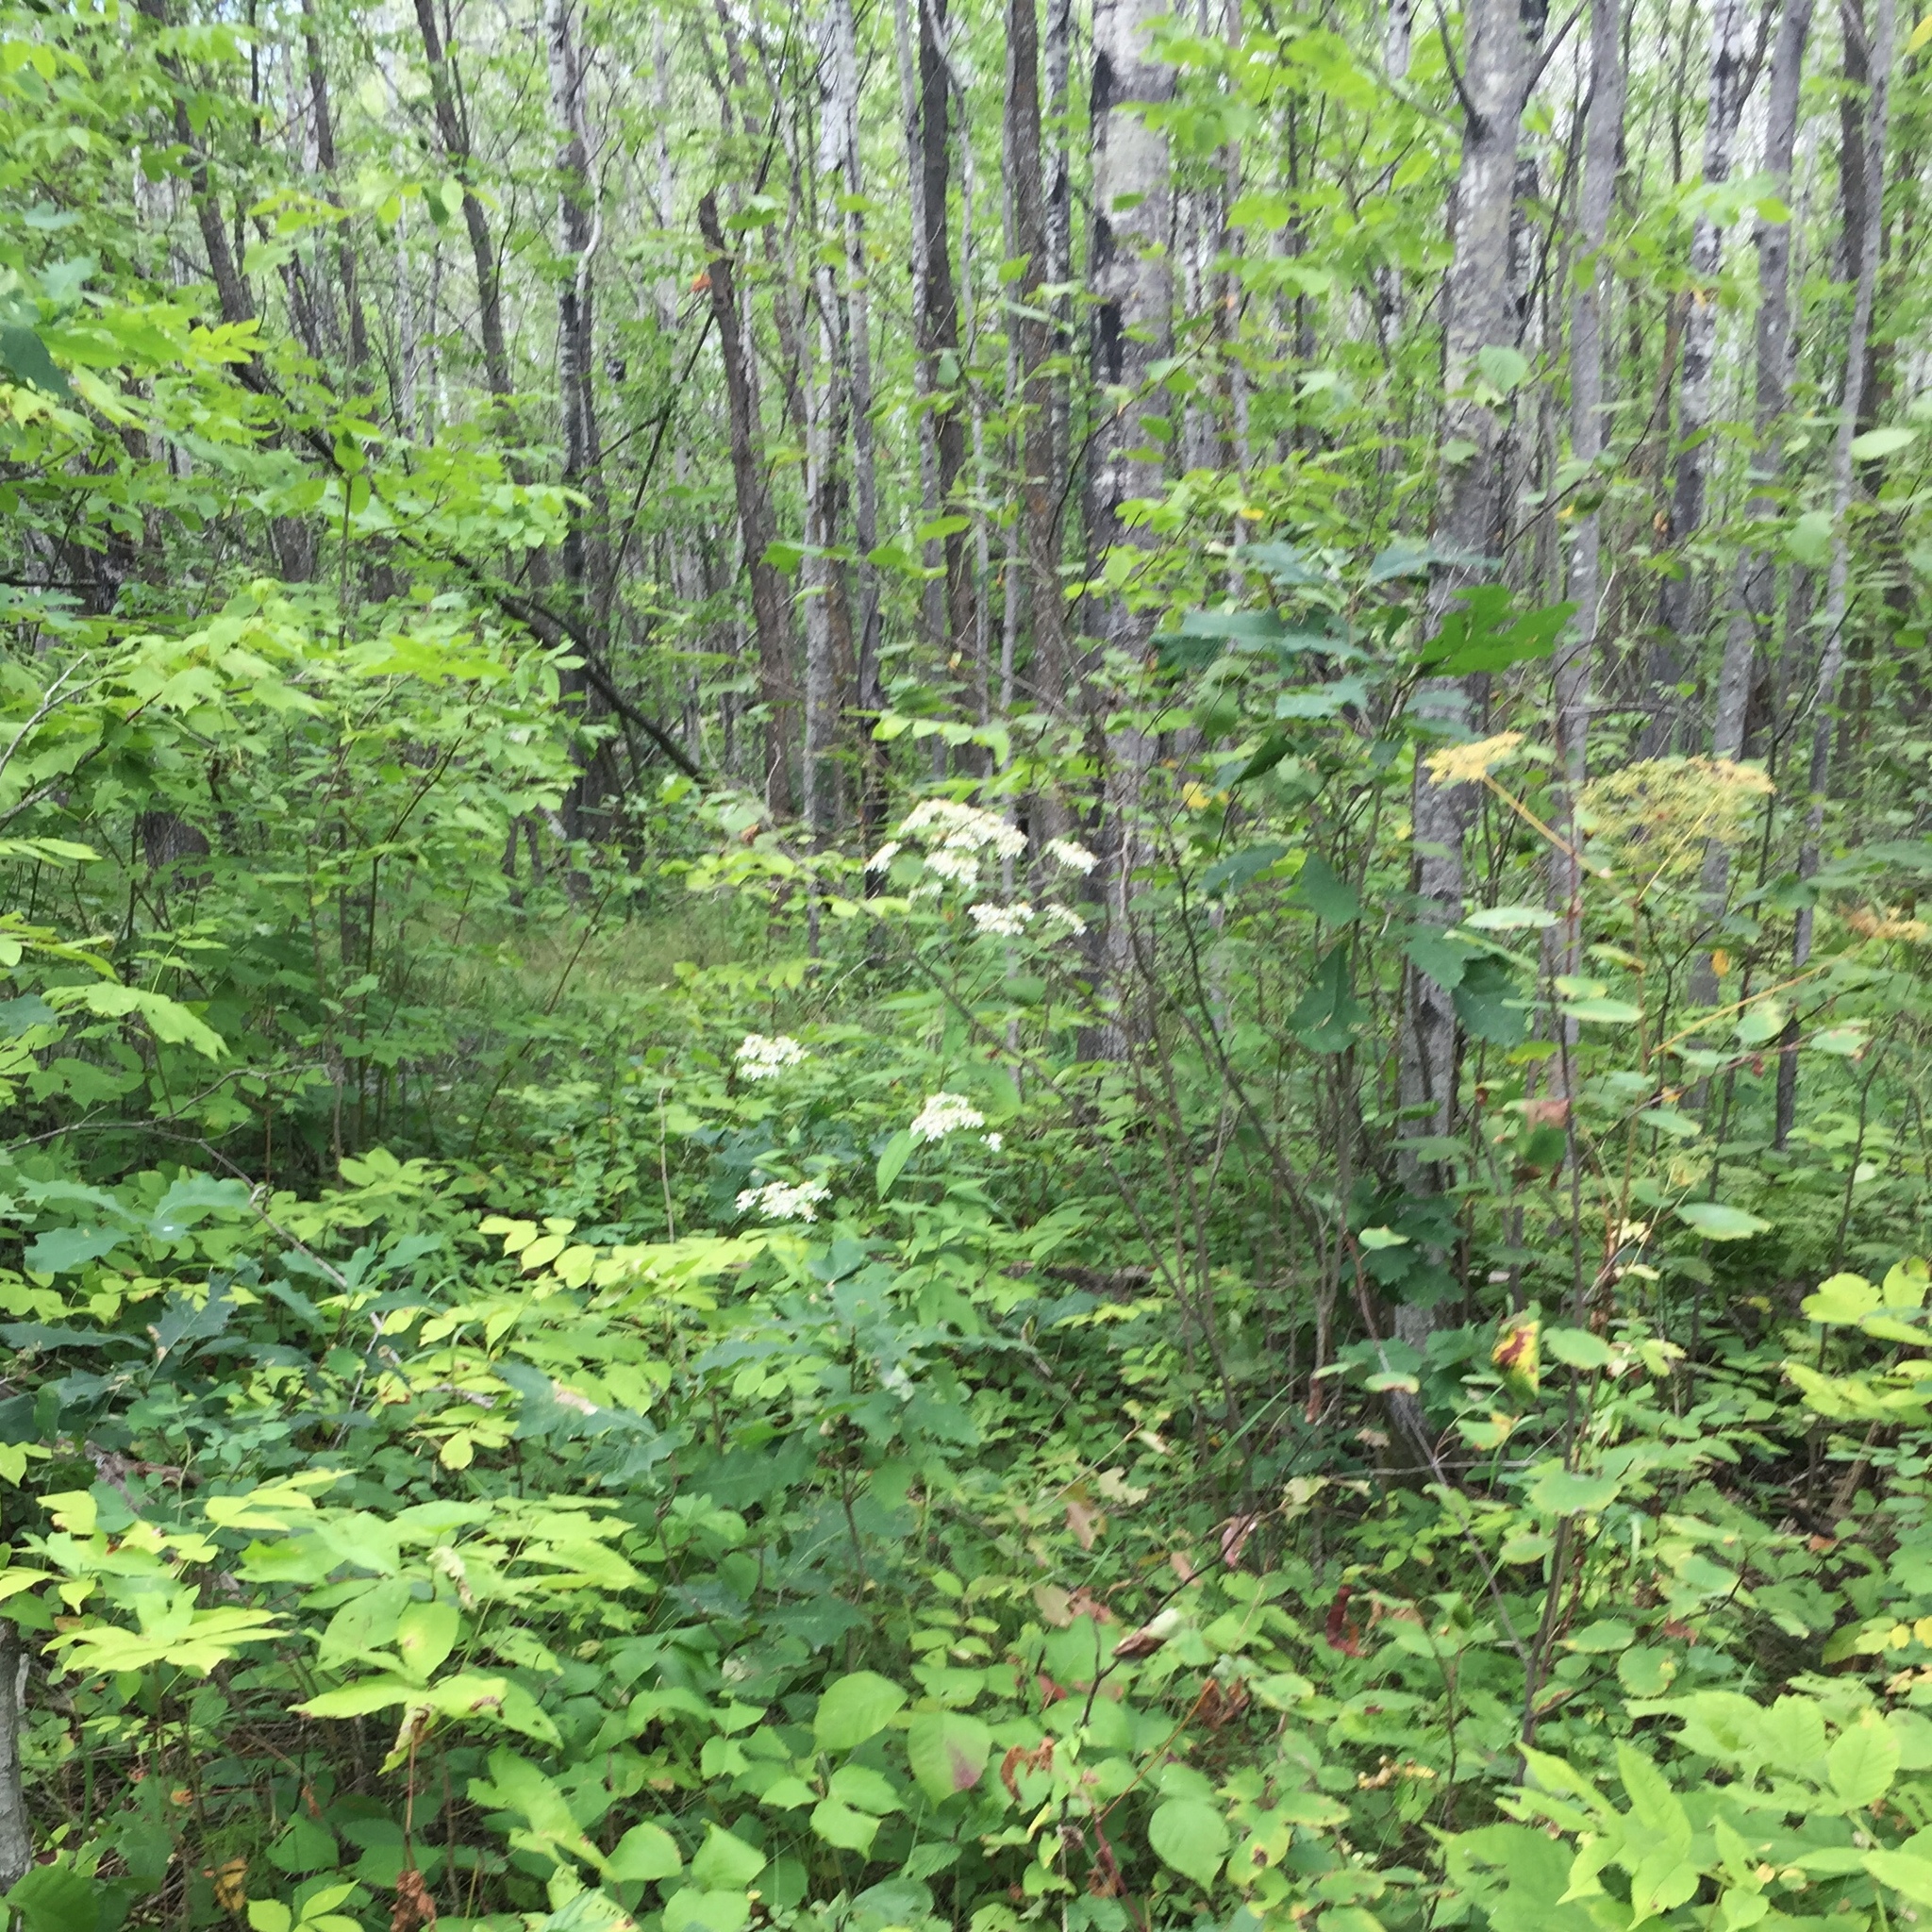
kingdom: Plantae
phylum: Tracheophyta
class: Magnoliopsida
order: Asterales
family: Asteraceae
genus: Doellingeria
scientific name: Doellingeria umbellata
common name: Flat-top white aster
